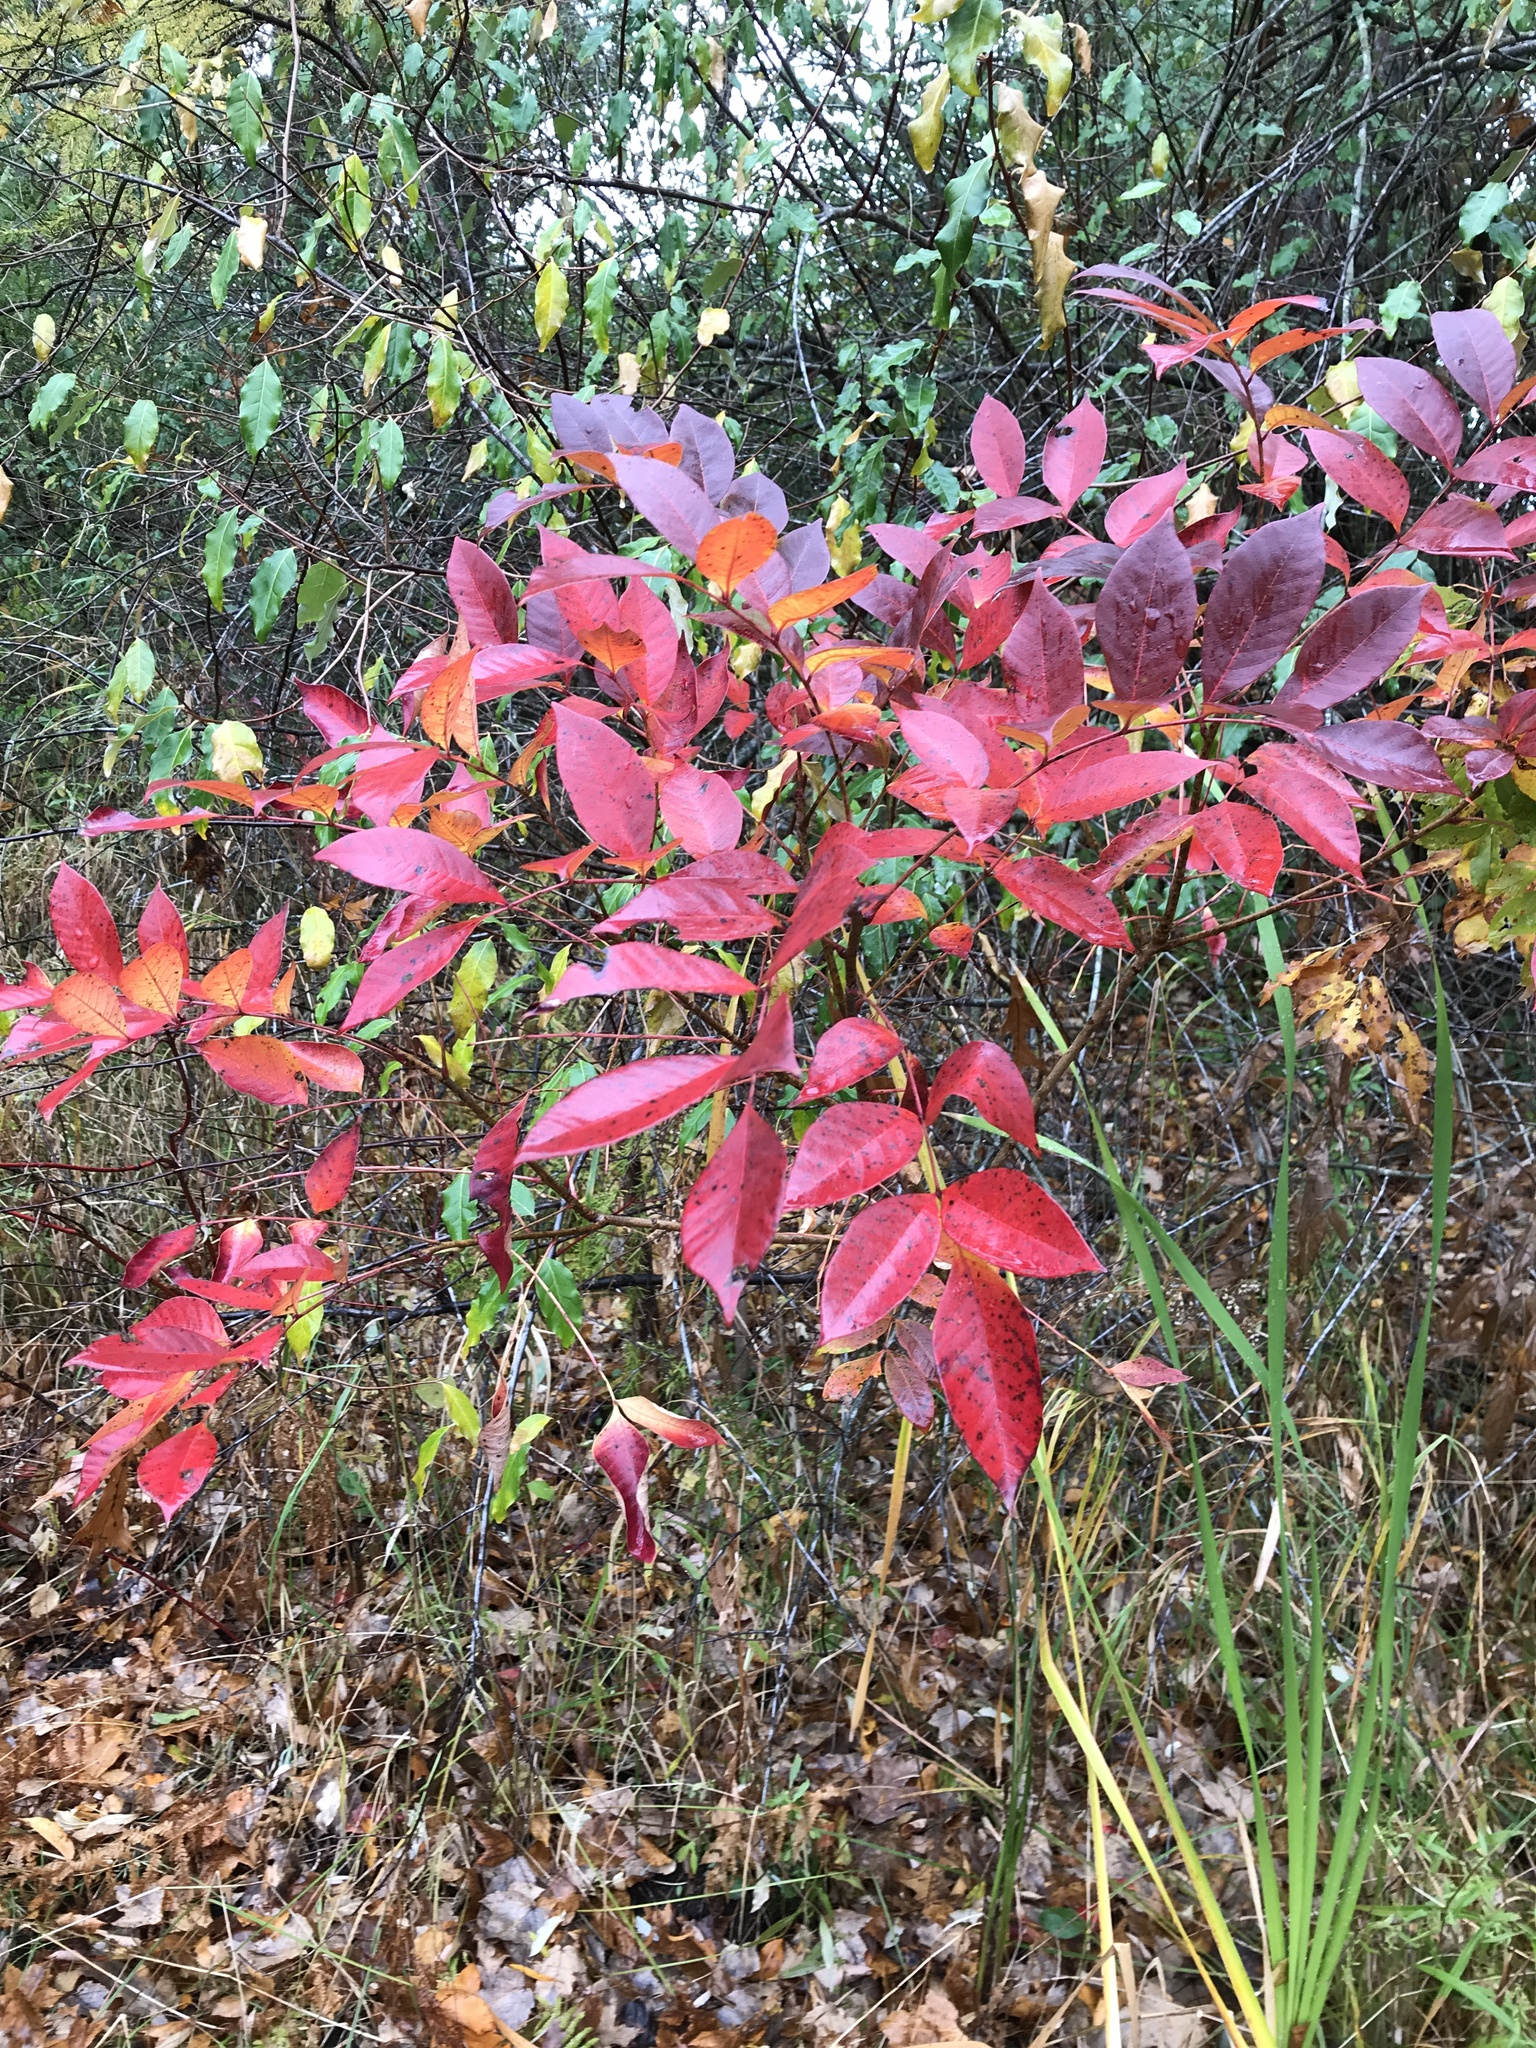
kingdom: Plantae
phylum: Tracheophyta
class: Magnoliopsida
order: Sapindales
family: Anacardiaceae
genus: Toxicodendron
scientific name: Toxicodendron vernix
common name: Poison sumac
